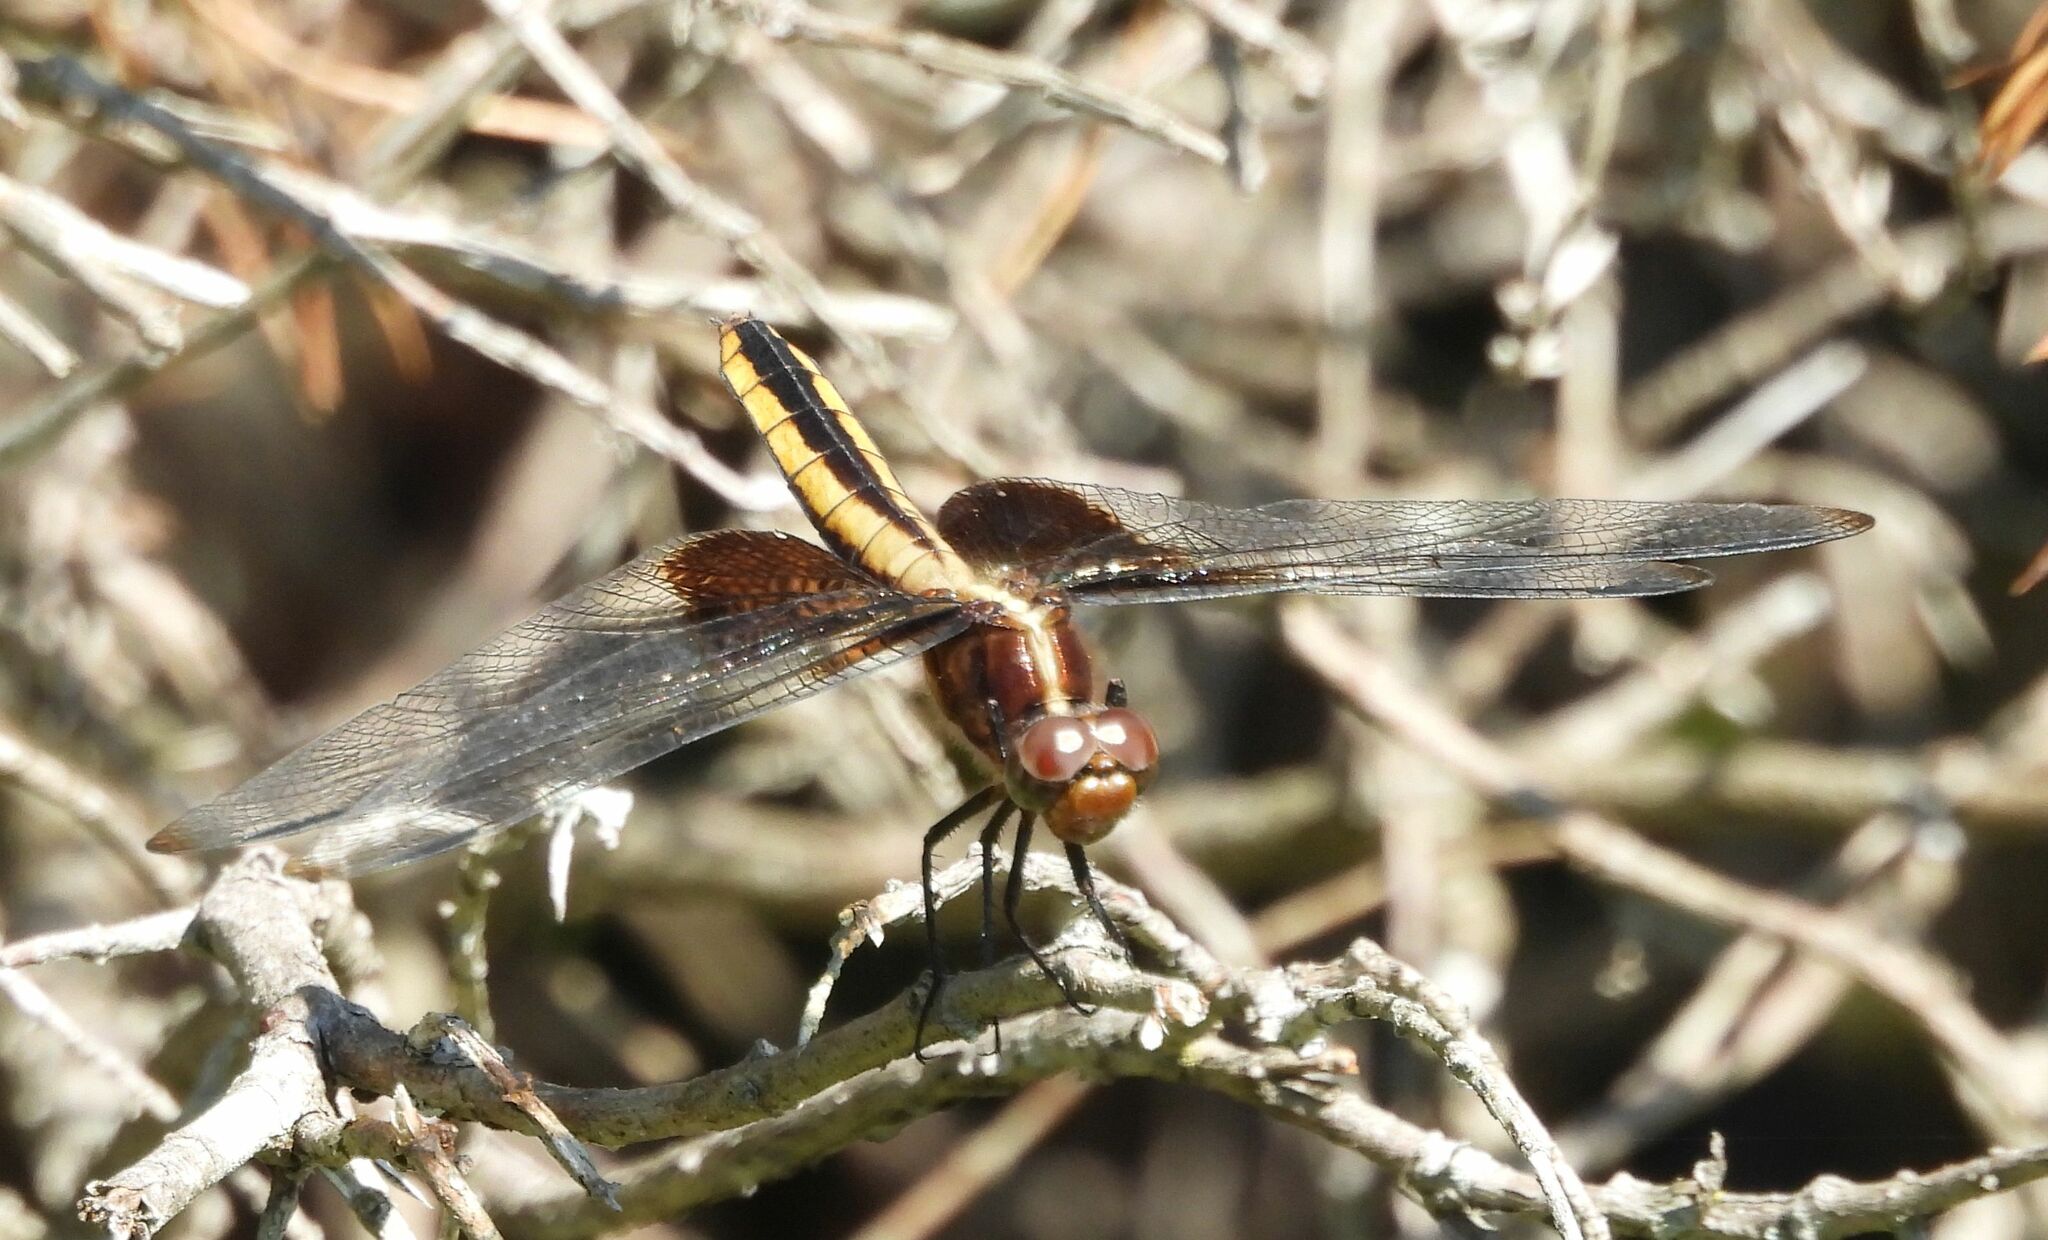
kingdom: Animalia
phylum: Arthropoda
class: Insecta
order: Odonata
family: Libellulidae
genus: Libellula
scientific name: Libellula luctuosa
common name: Widow skimmer
